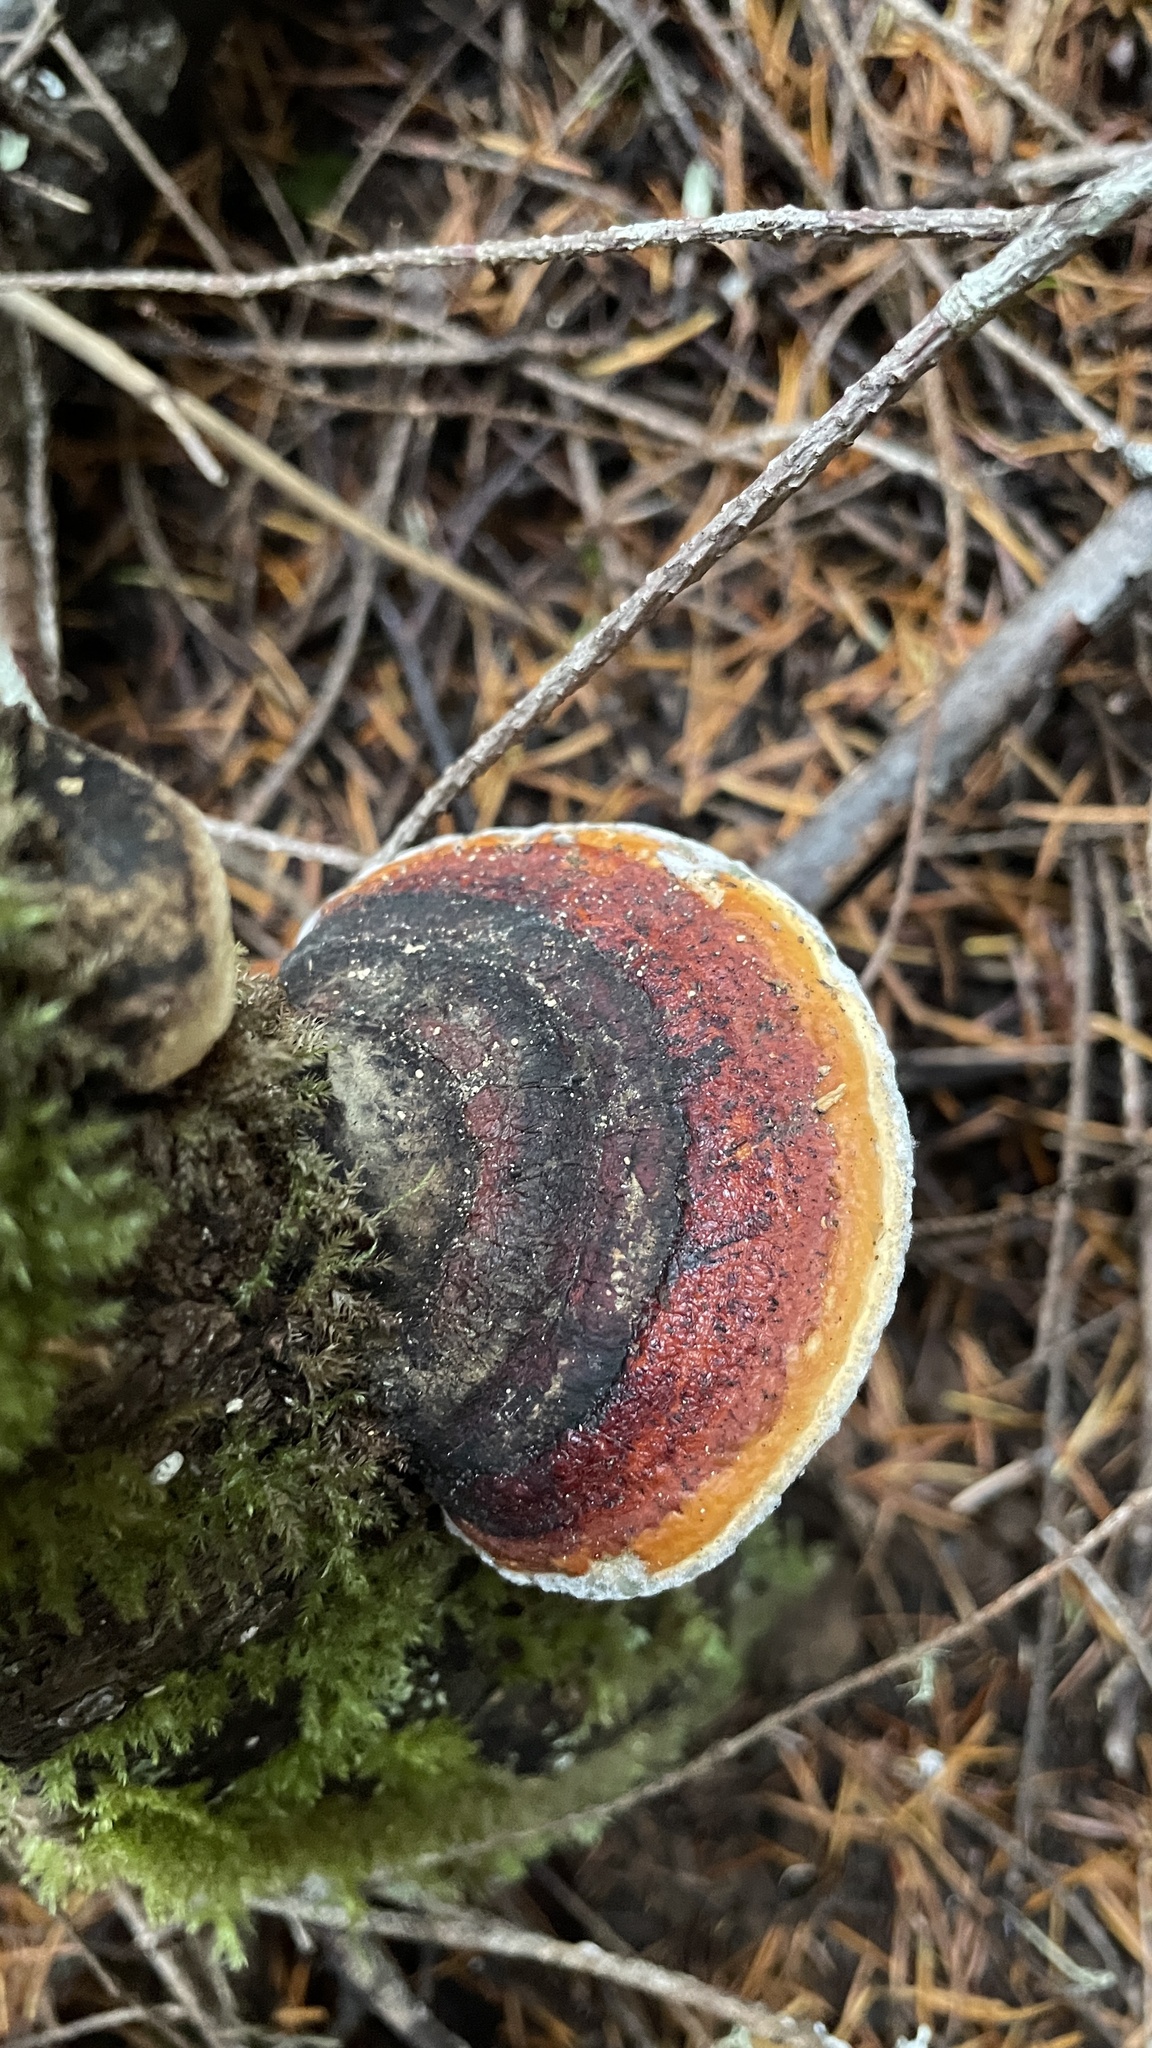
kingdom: Fungi
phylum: Basidiomycota
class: Agaricomycetes
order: Polyporales
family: Fomitopsidaceae
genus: Fomitopsis
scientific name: Fomitopsis mounceae
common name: Northern red belt
